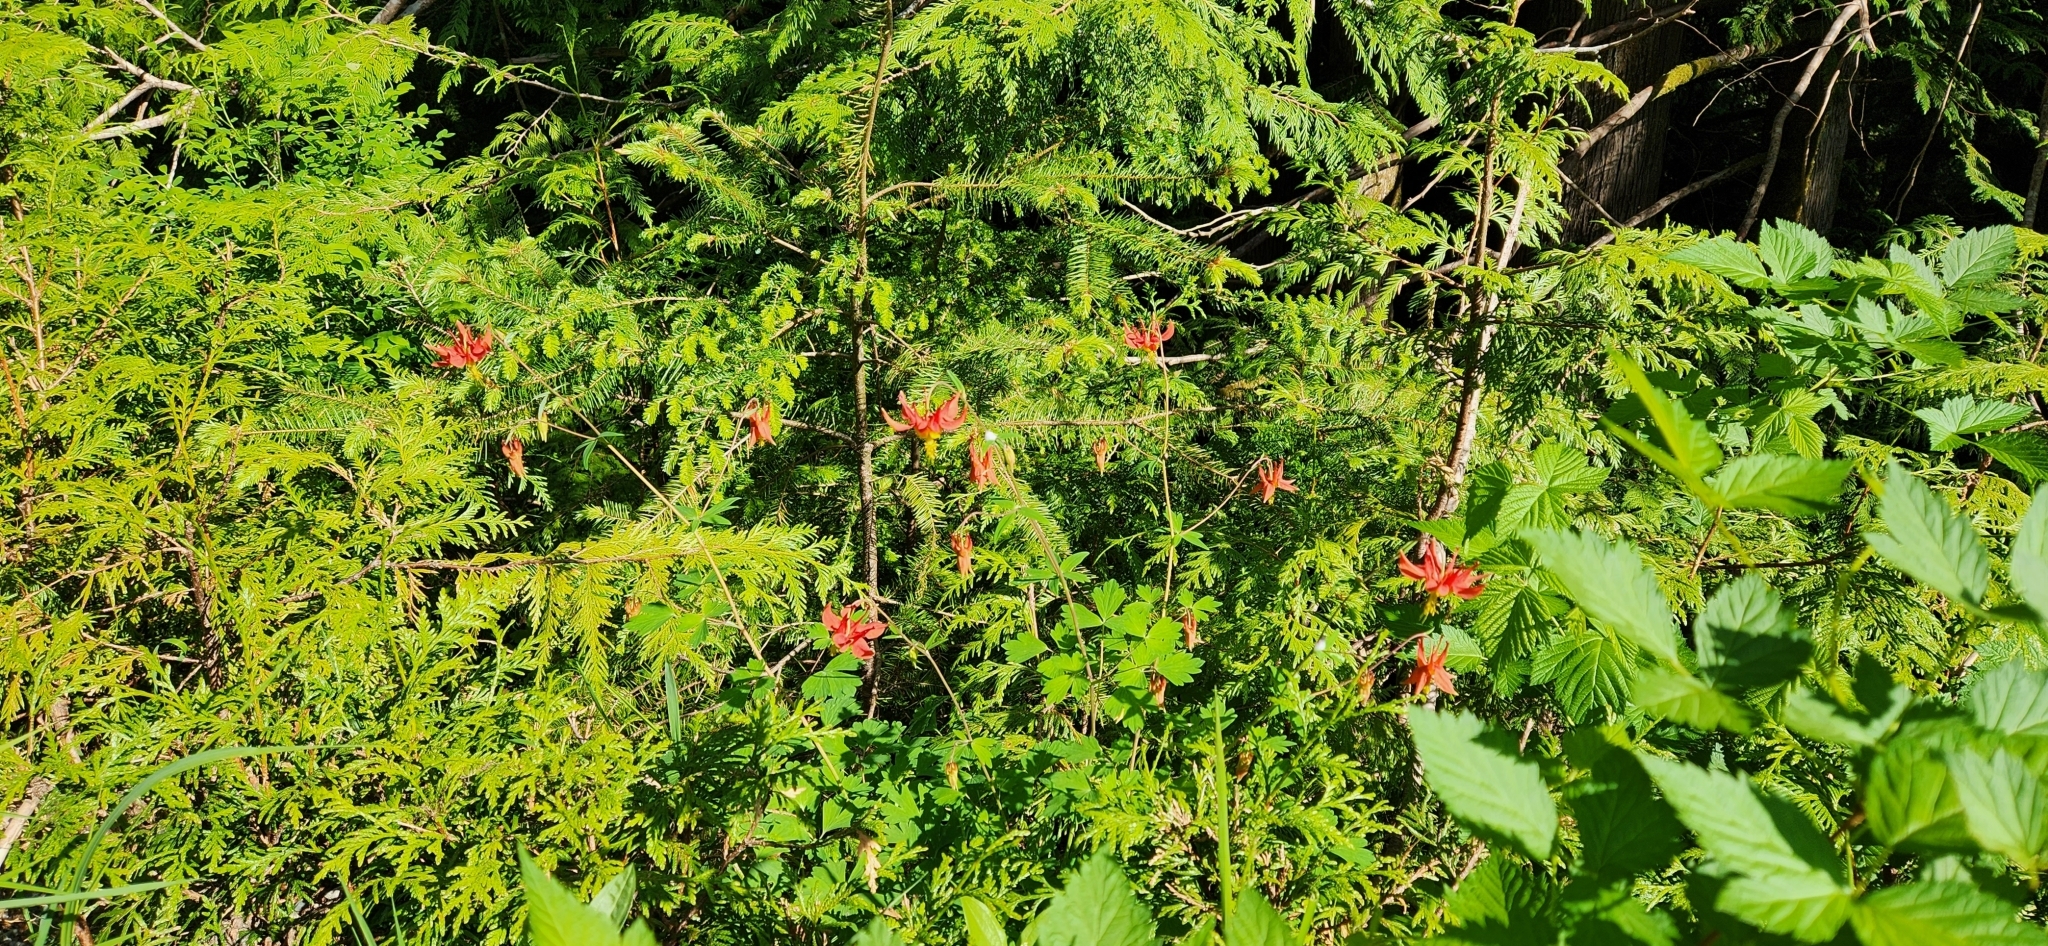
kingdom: Plantae
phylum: Tracheophyta
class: Magnoliopsida
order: Ranunculales
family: Ranunculaceae
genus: Aquilegia
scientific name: Aquilegia formosa
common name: Sitka columbine
